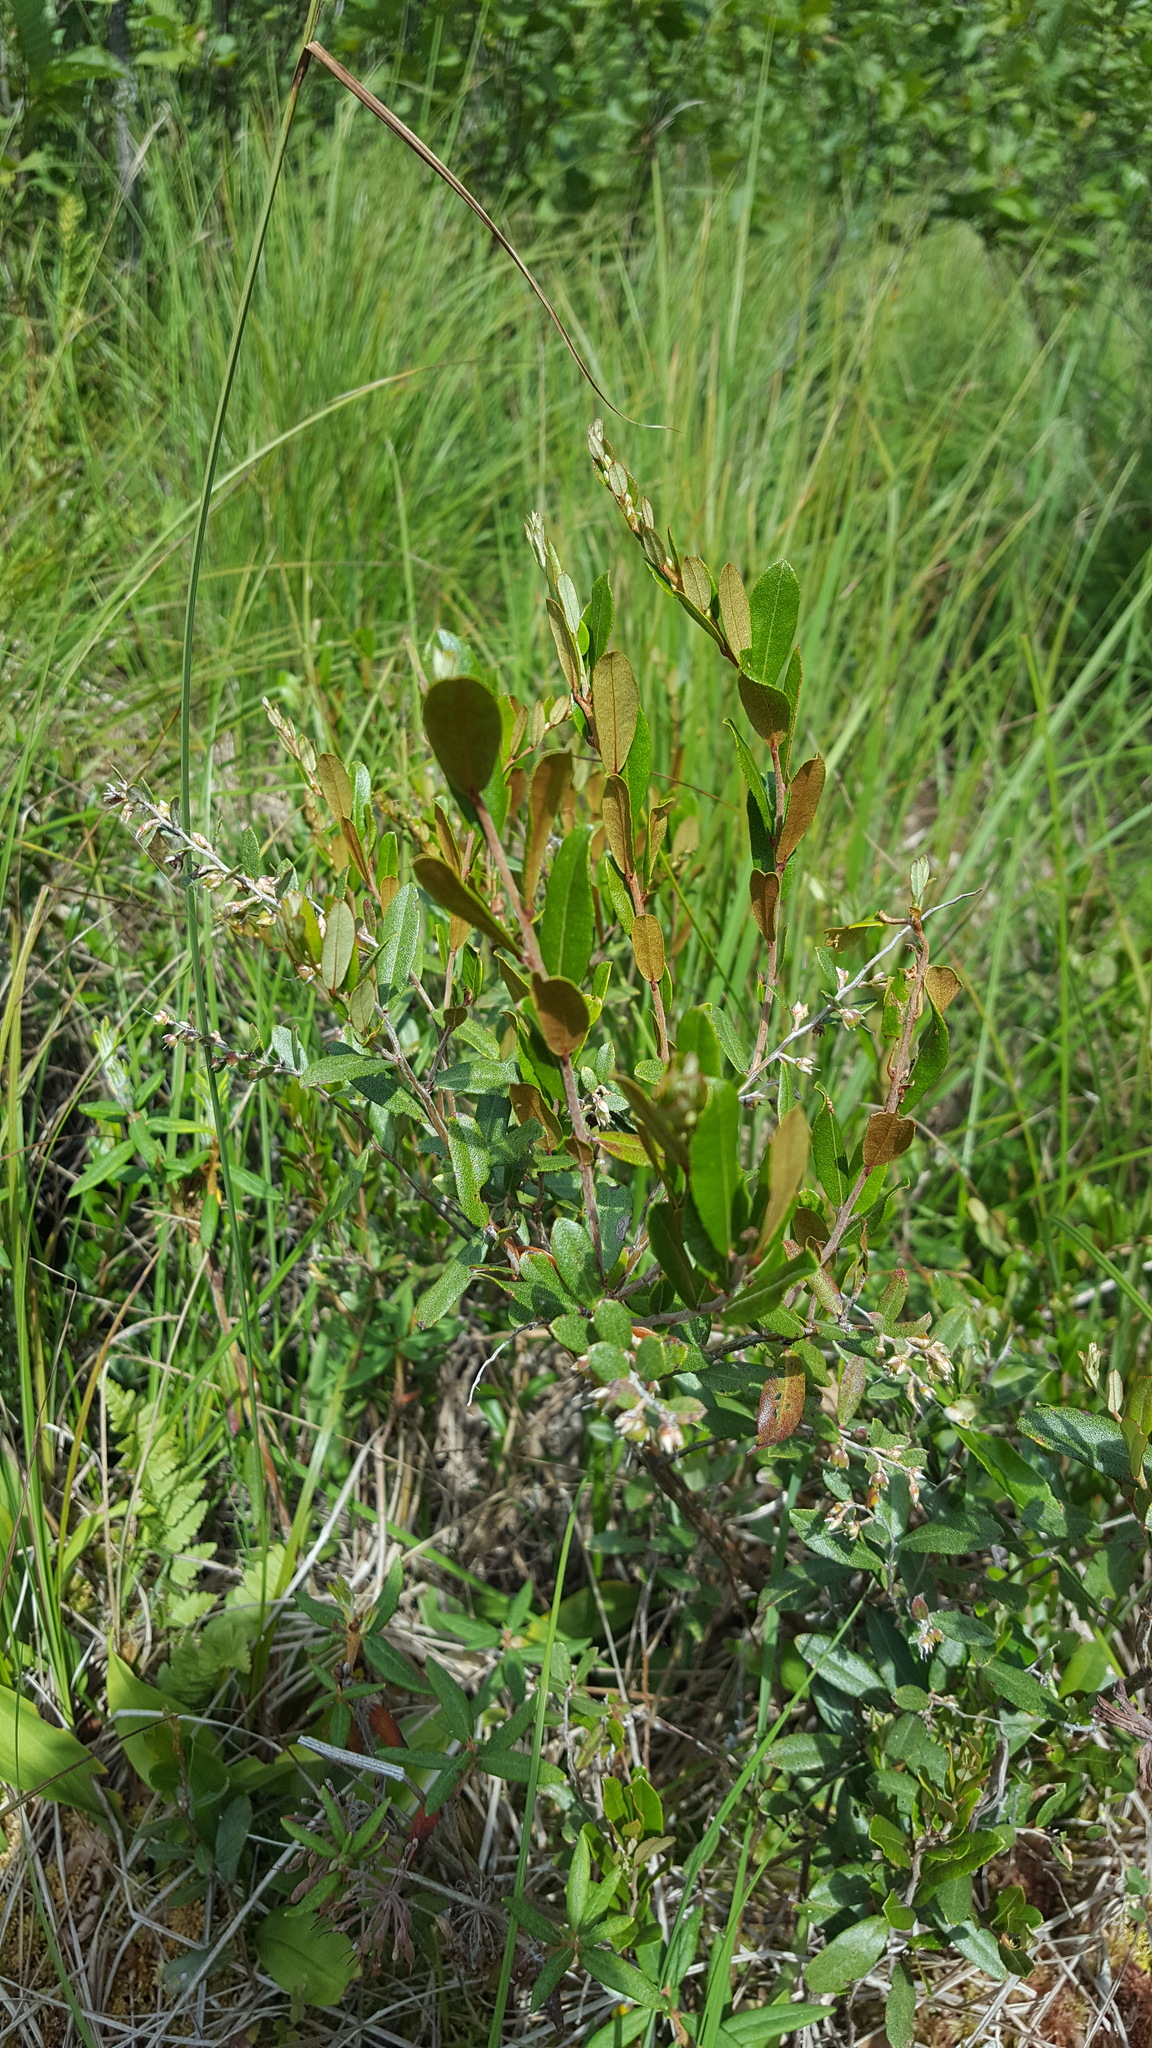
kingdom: Plantae
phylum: Tracheophyta
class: Magnoliopsida
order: Ericales
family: Ericaceae
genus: Chamaedaphne
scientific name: Chamaedaphne calyculata
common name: Leatherleaf
